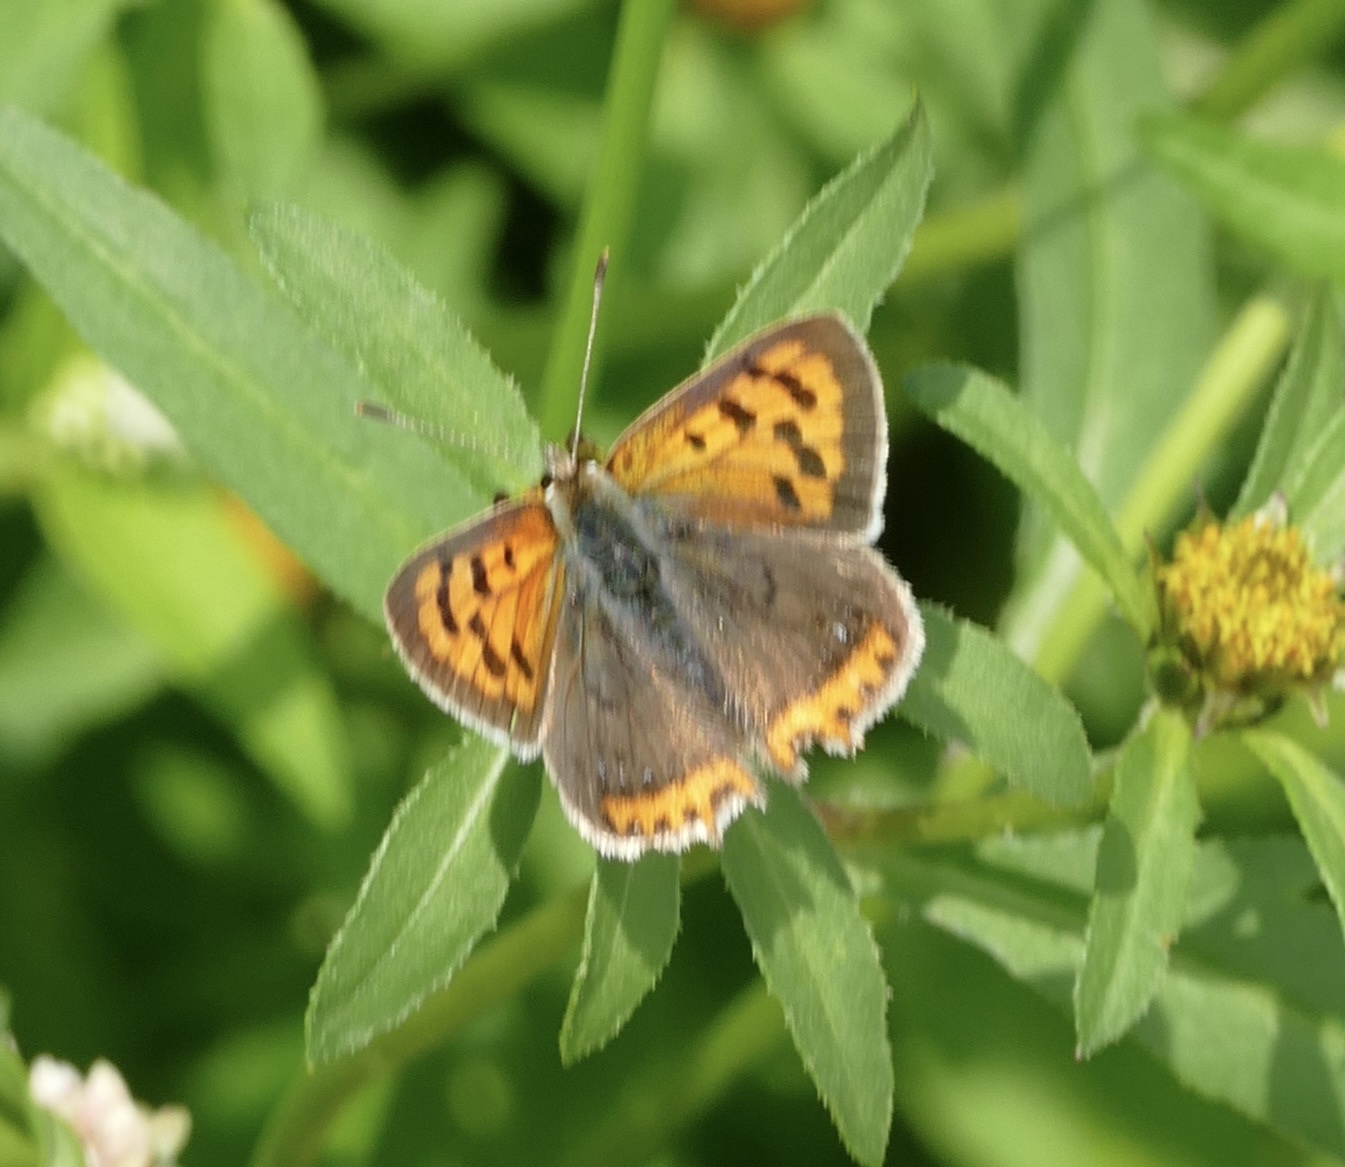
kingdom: Animalia
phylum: Arthropoda
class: Insecta
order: Lepidoptera
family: Lycaenidae
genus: Lycaena
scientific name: Lycaena phlaeas
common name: Small copper
